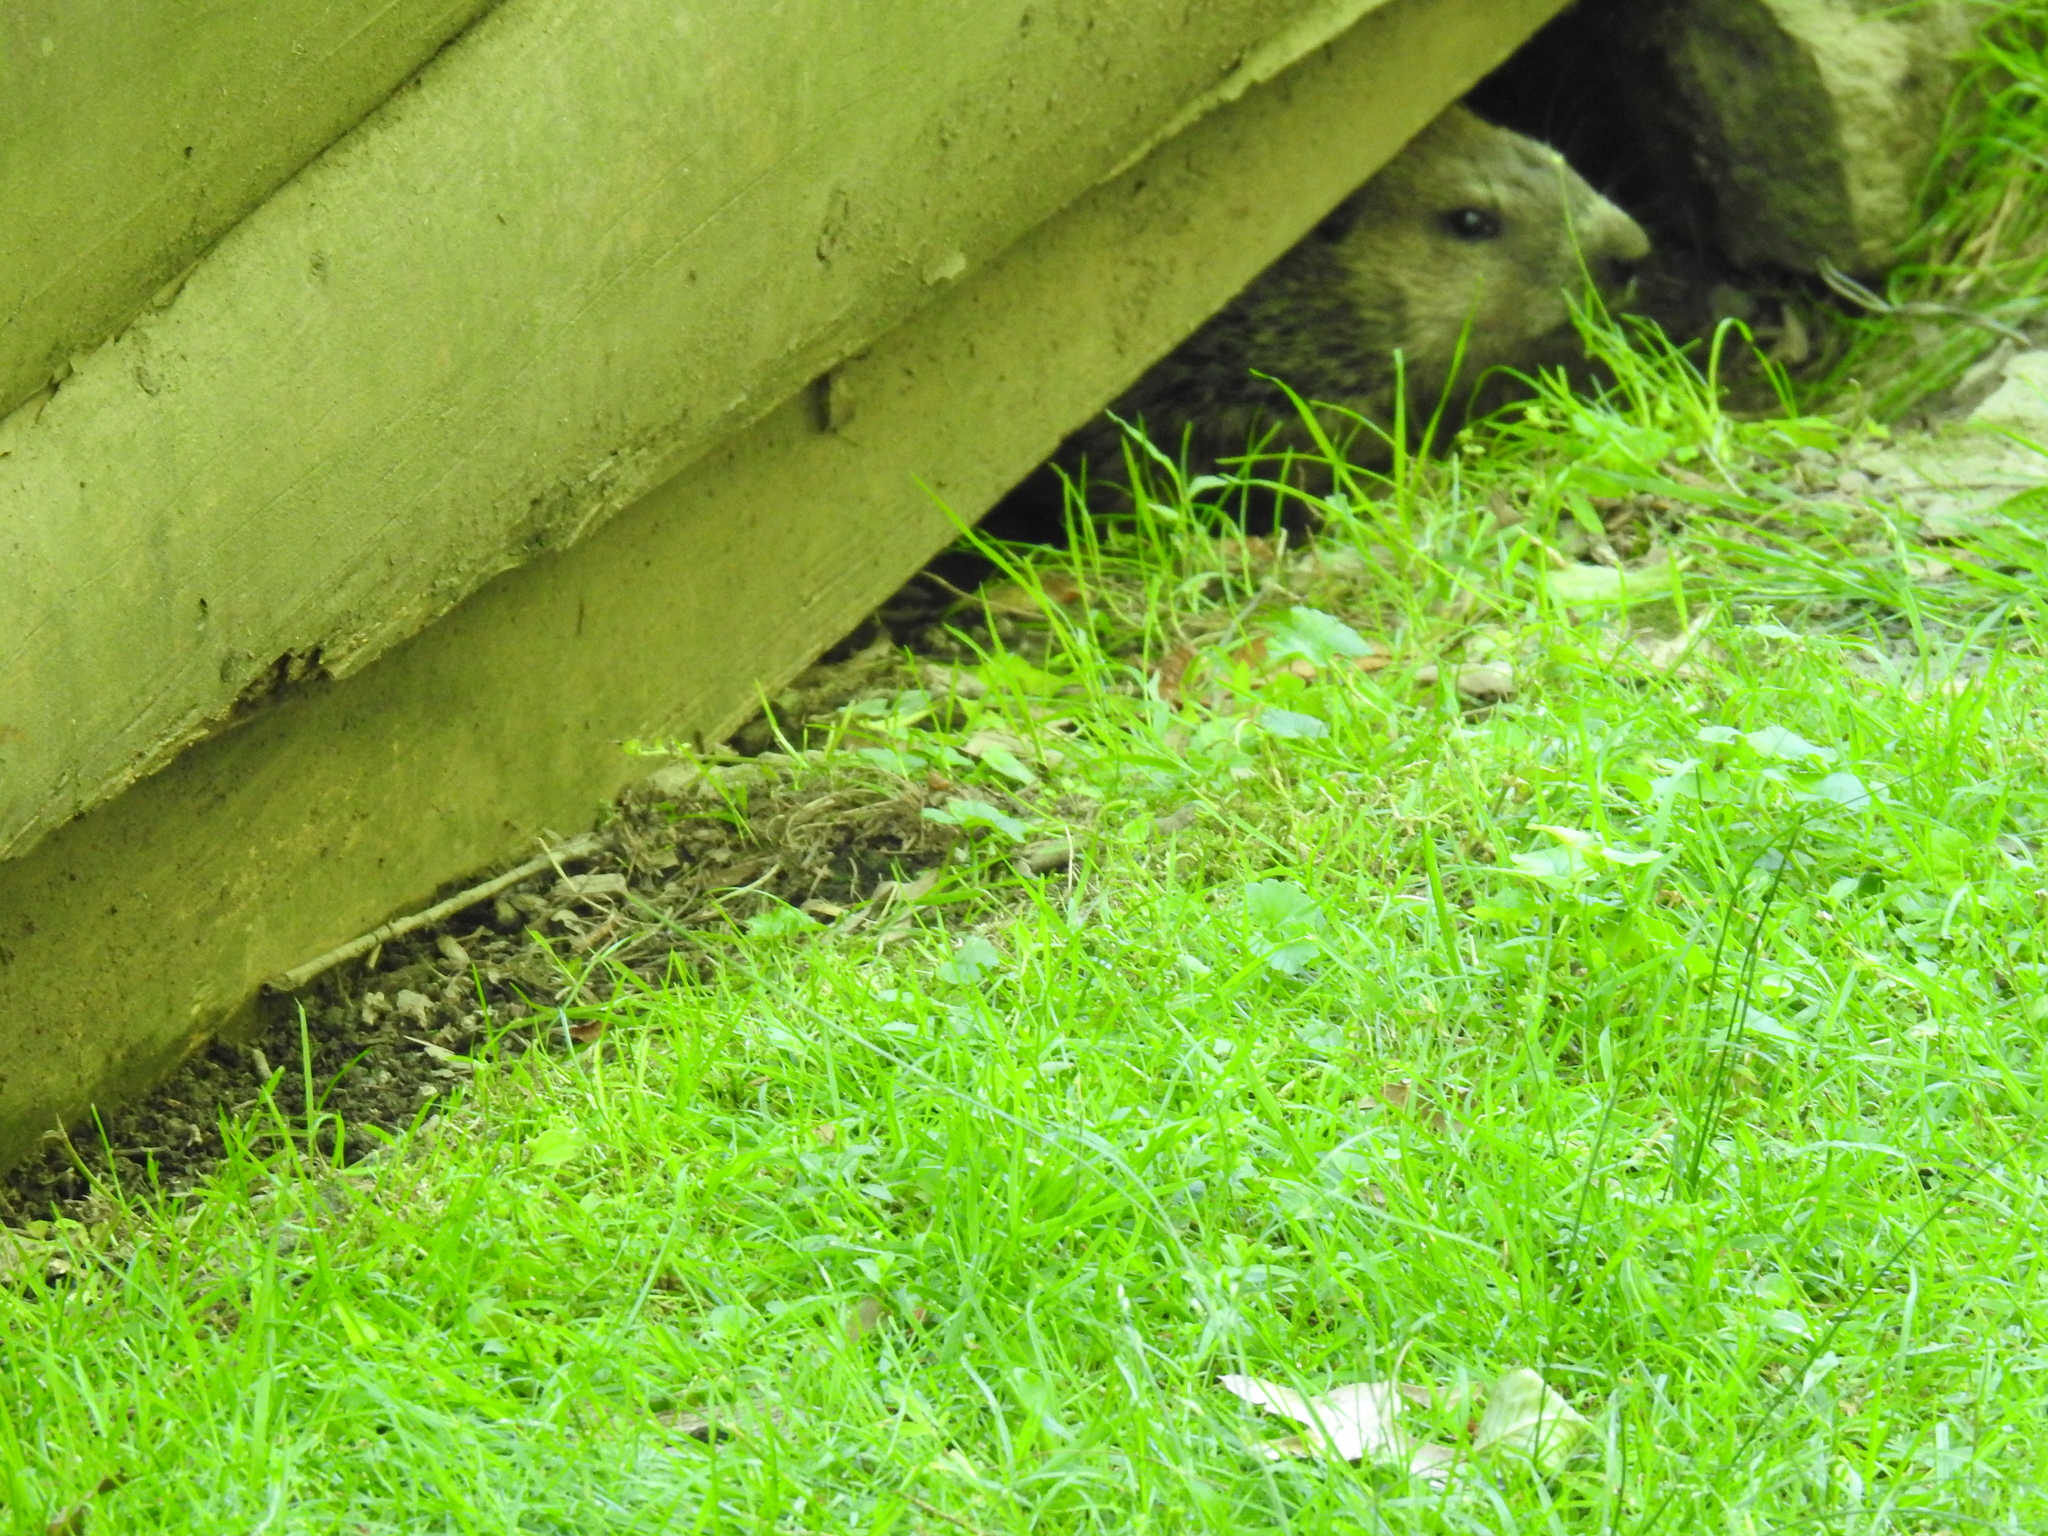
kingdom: Animalia
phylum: Chordata
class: Mammalia
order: Rodentia
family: Sciuridae
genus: Marmota
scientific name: Marmota monax
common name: Groundhog
